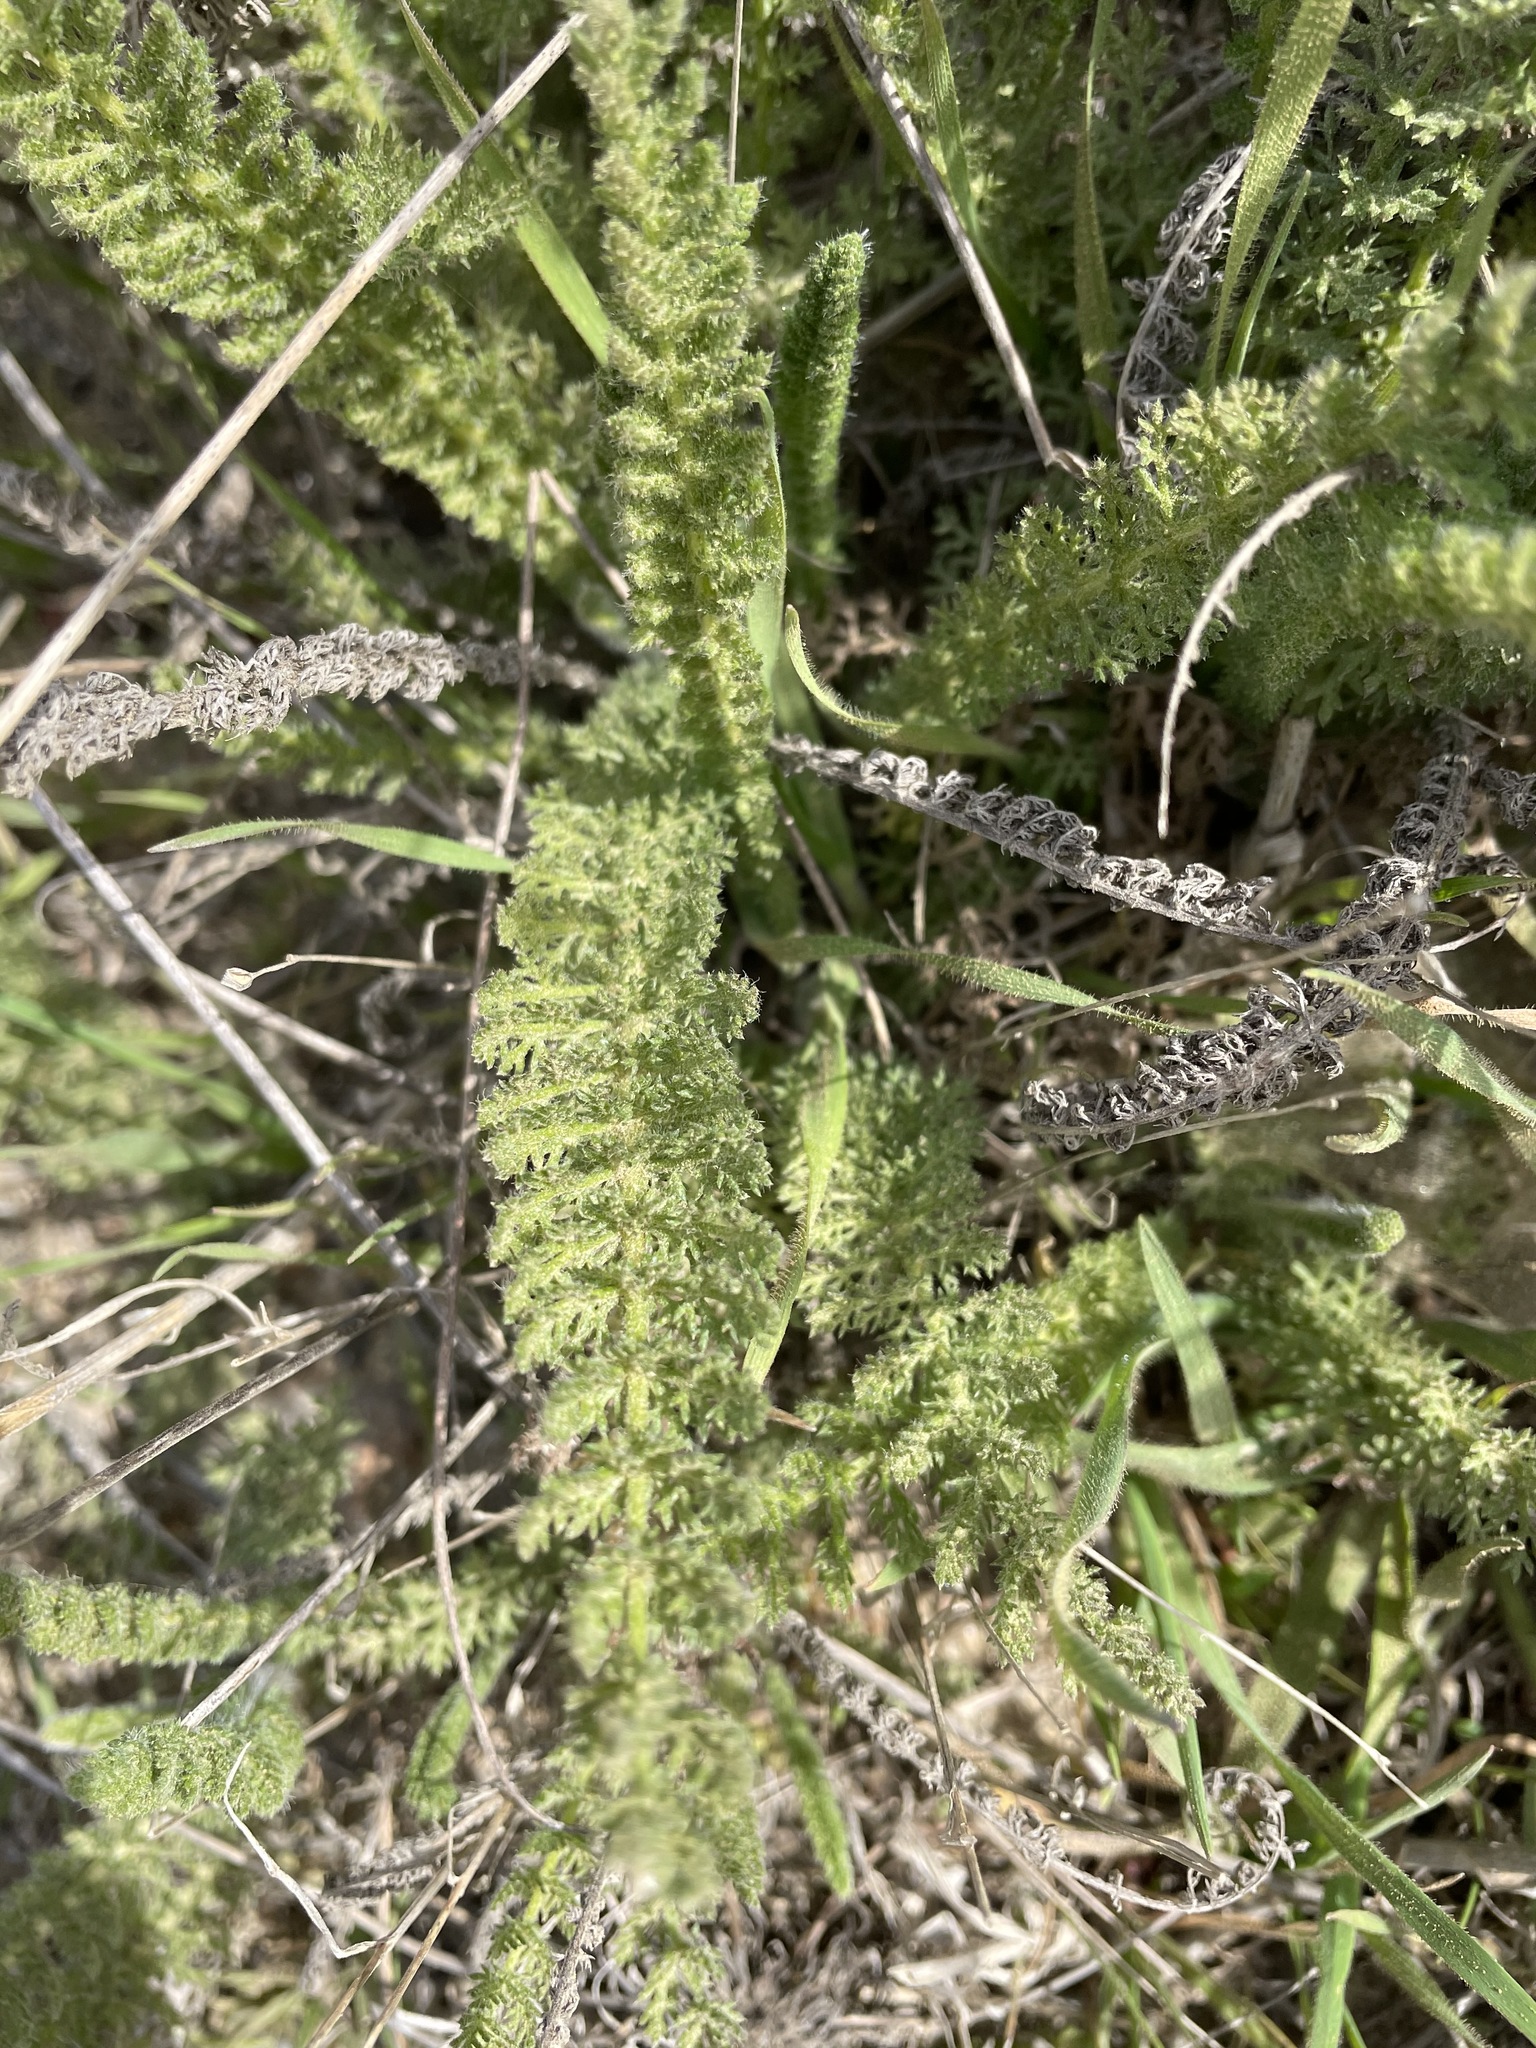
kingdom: Plantae
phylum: Tracheophyta
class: Magnoliopsida
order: Asterales
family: Asteraceae
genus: Achillea
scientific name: Achillea millefolium
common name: Yarrow
